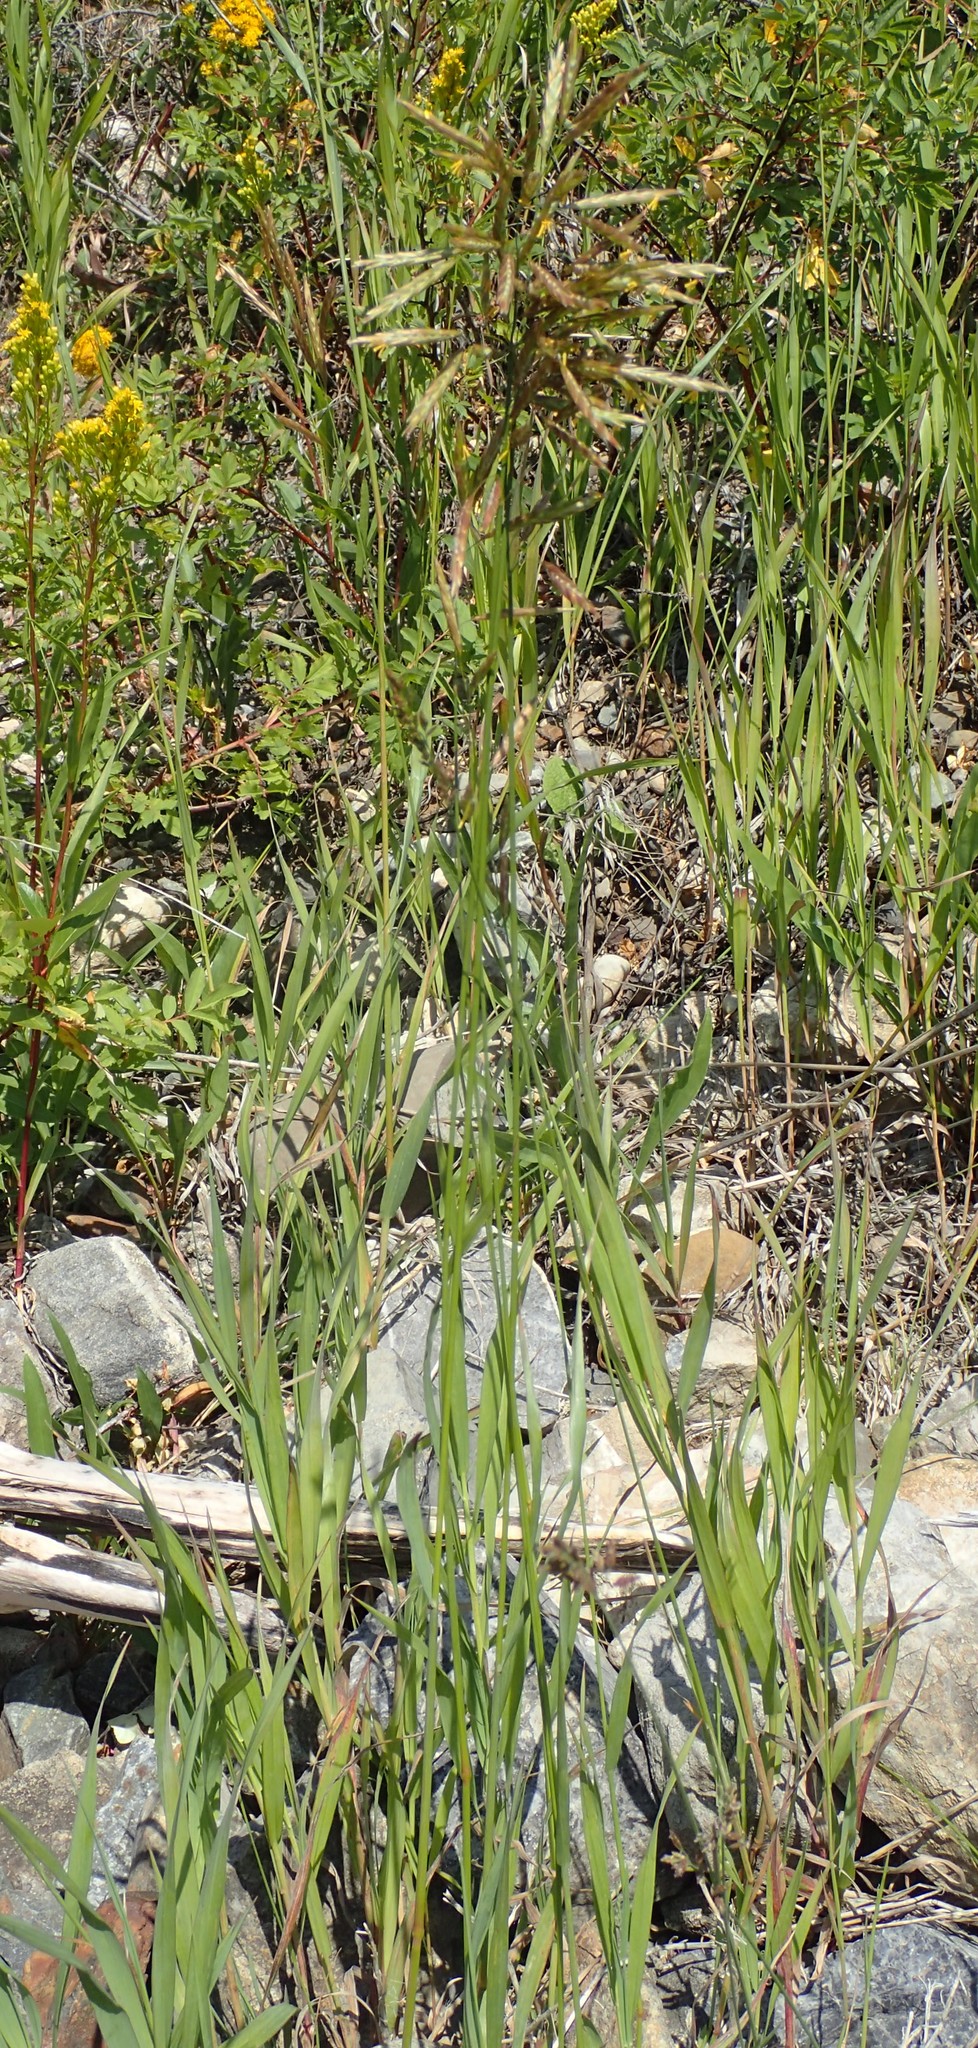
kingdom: Plantae
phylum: Tracheophyta
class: Liliopsida
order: Poales
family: Poaceae
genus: Bromus
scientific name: Bromus inermis
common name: Smooth brome
